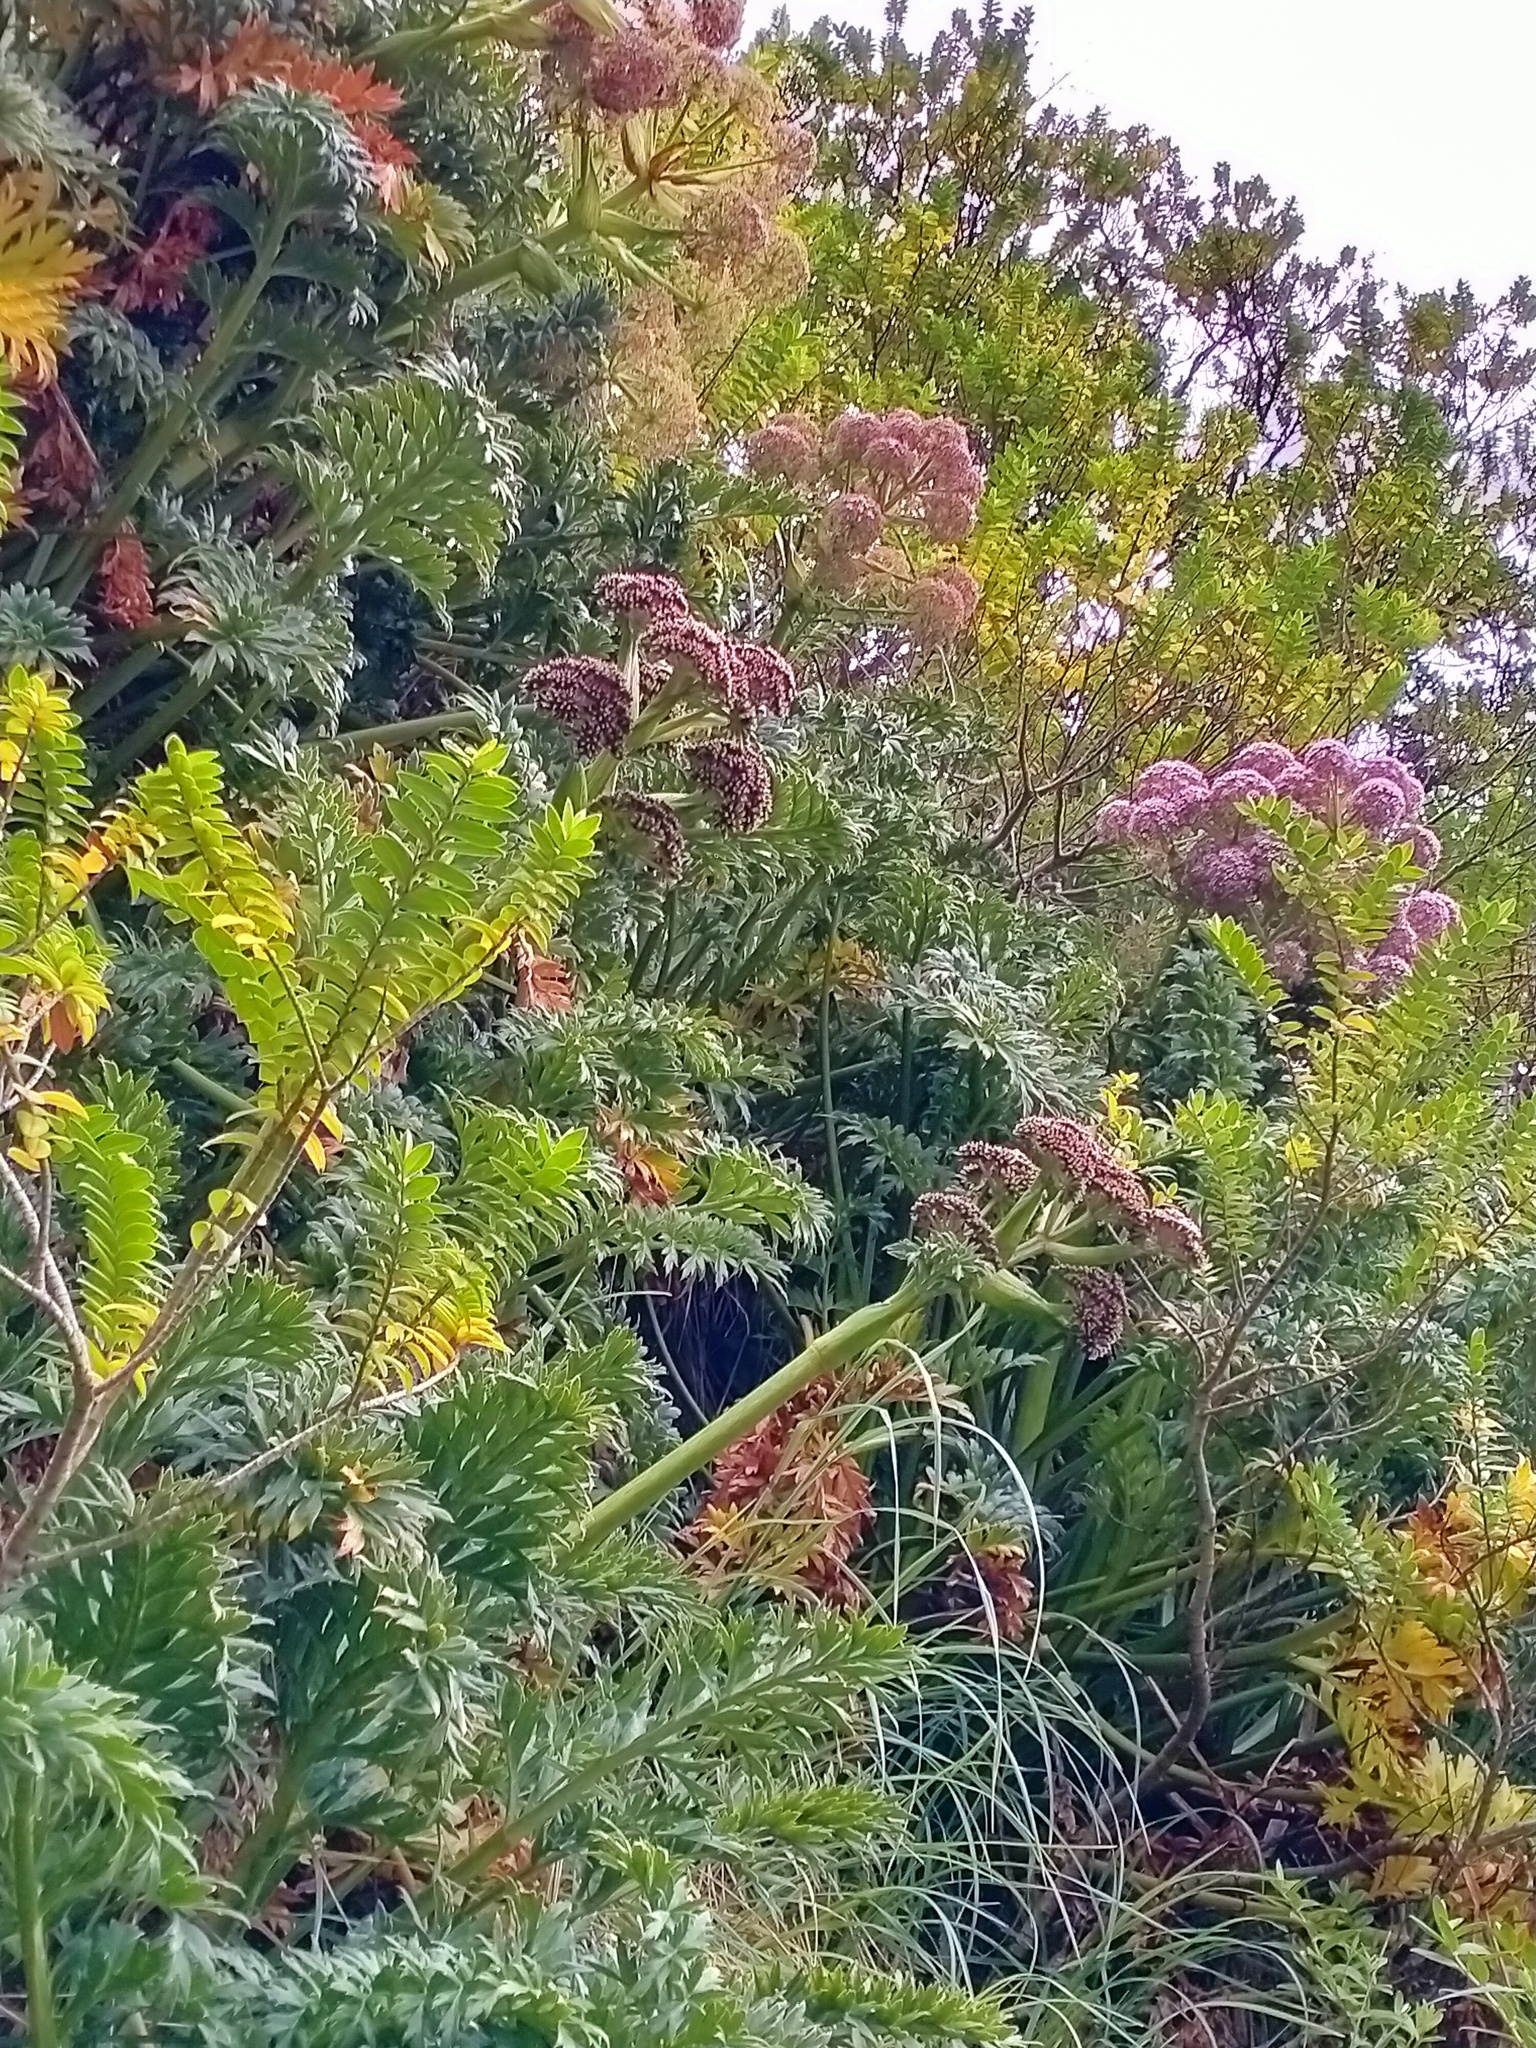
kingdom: Plantae
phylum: Tracheophyta
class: Magnoliopsida
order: Apiales
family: Apiaceae
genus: Anisotome
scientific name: Anisotome latifolia
